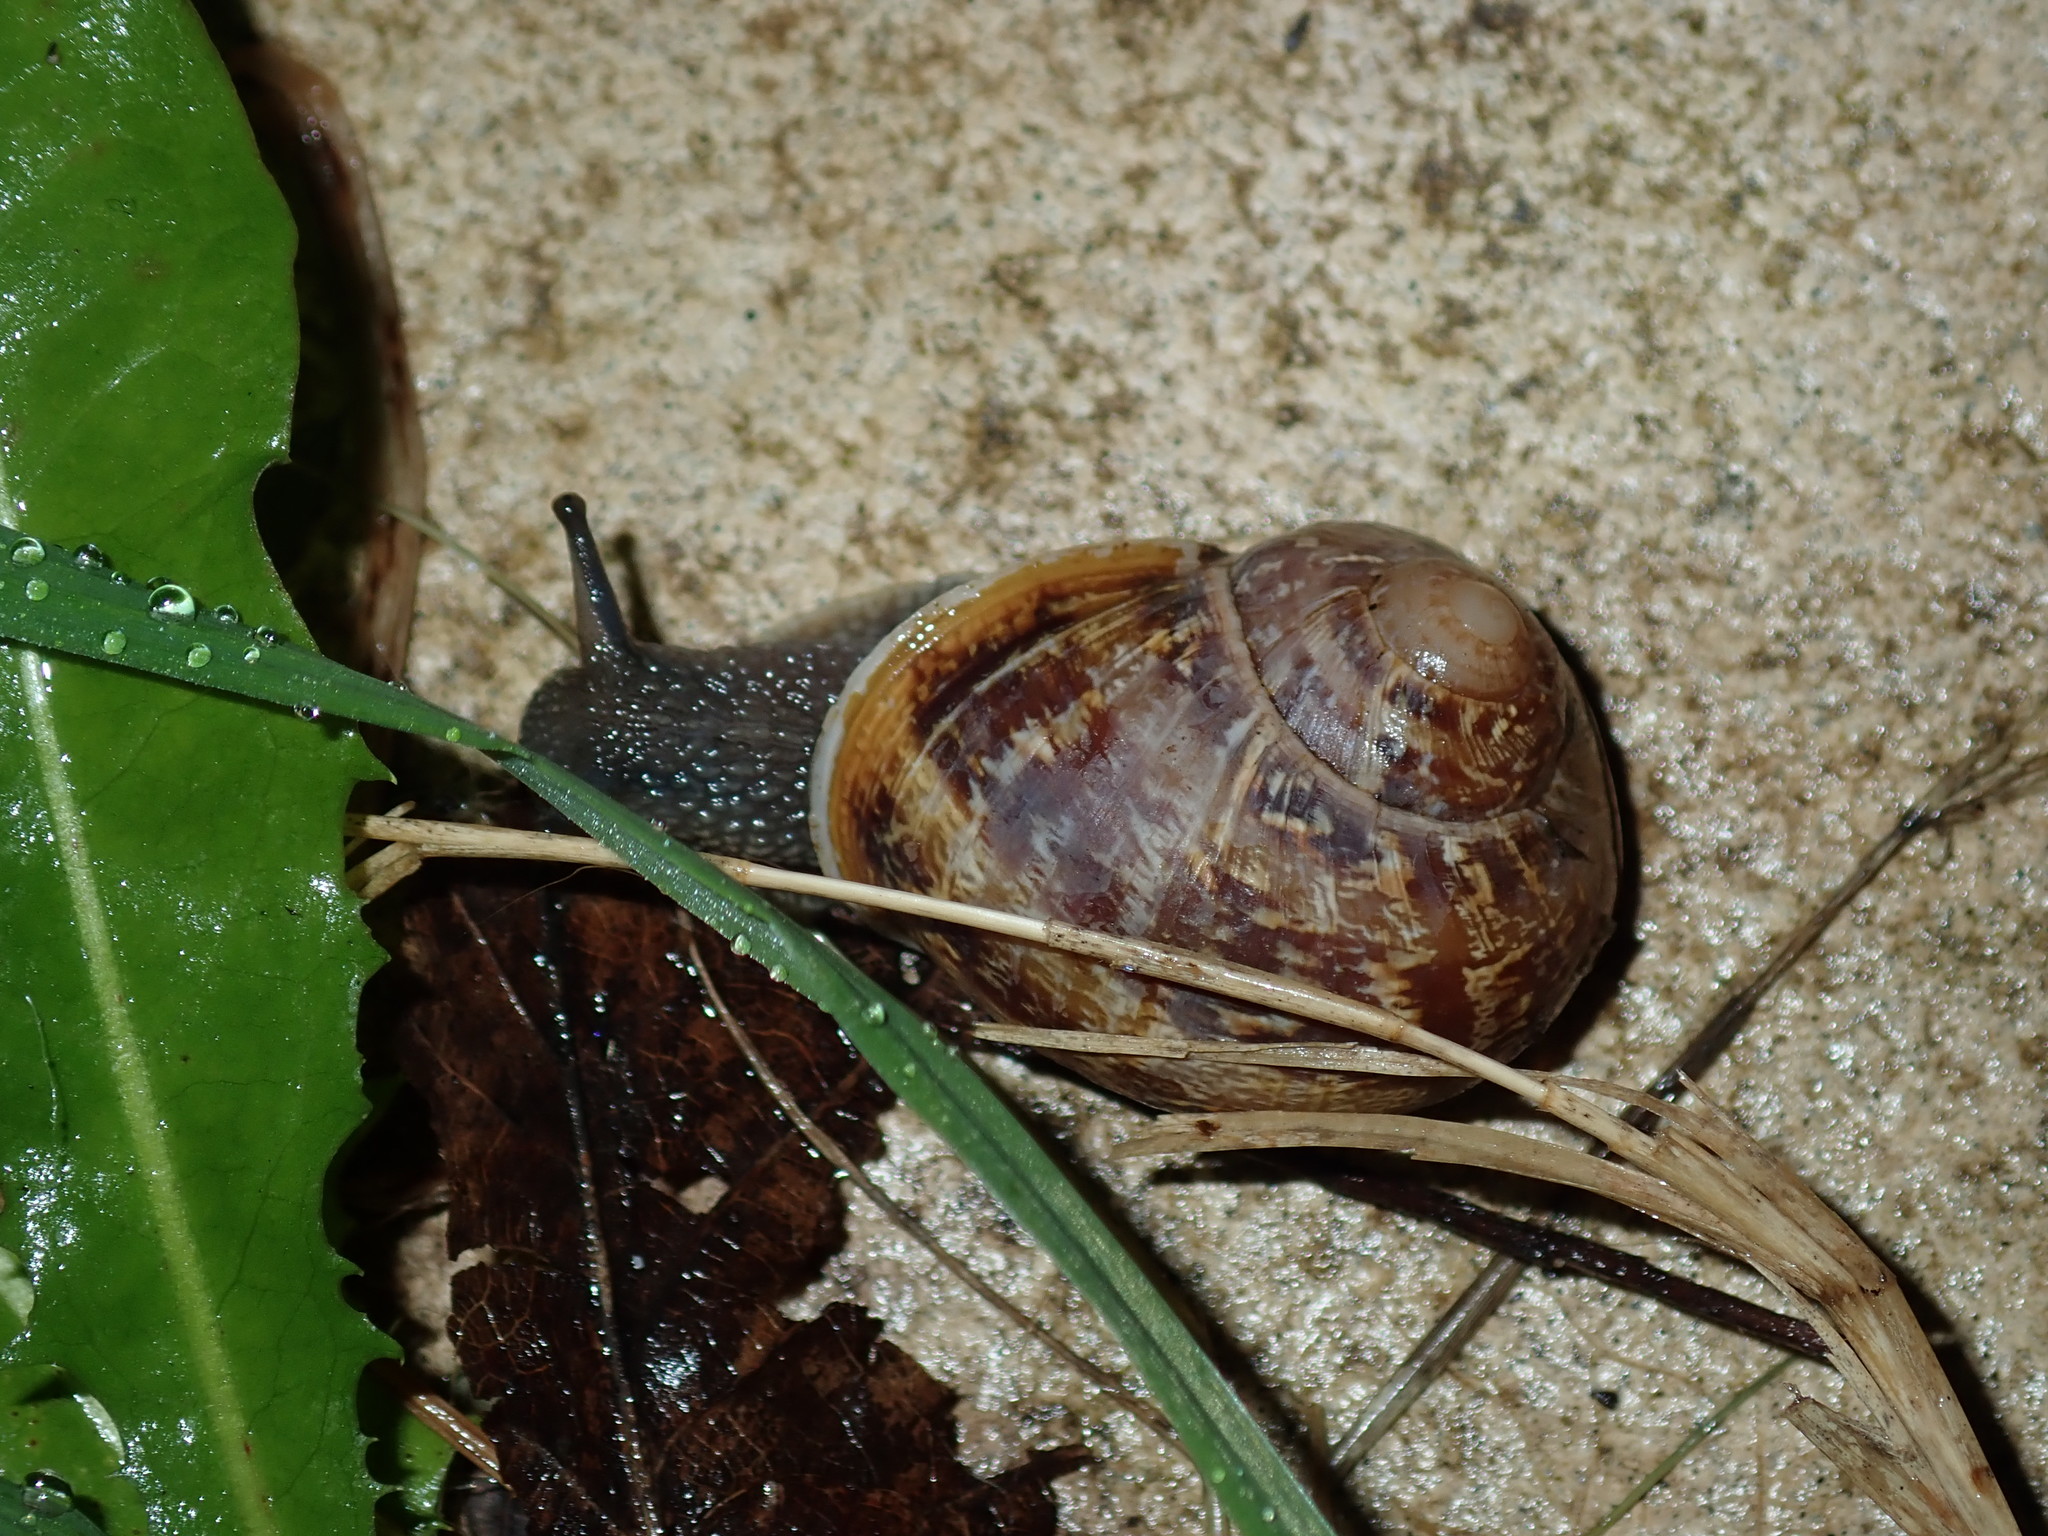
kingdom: Animalia
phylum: Mollusca
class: Gastropoda
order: Stylommatophora
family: Helicidae
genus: Cornu
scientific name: Cornu aspersum
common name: Brown garden snail
